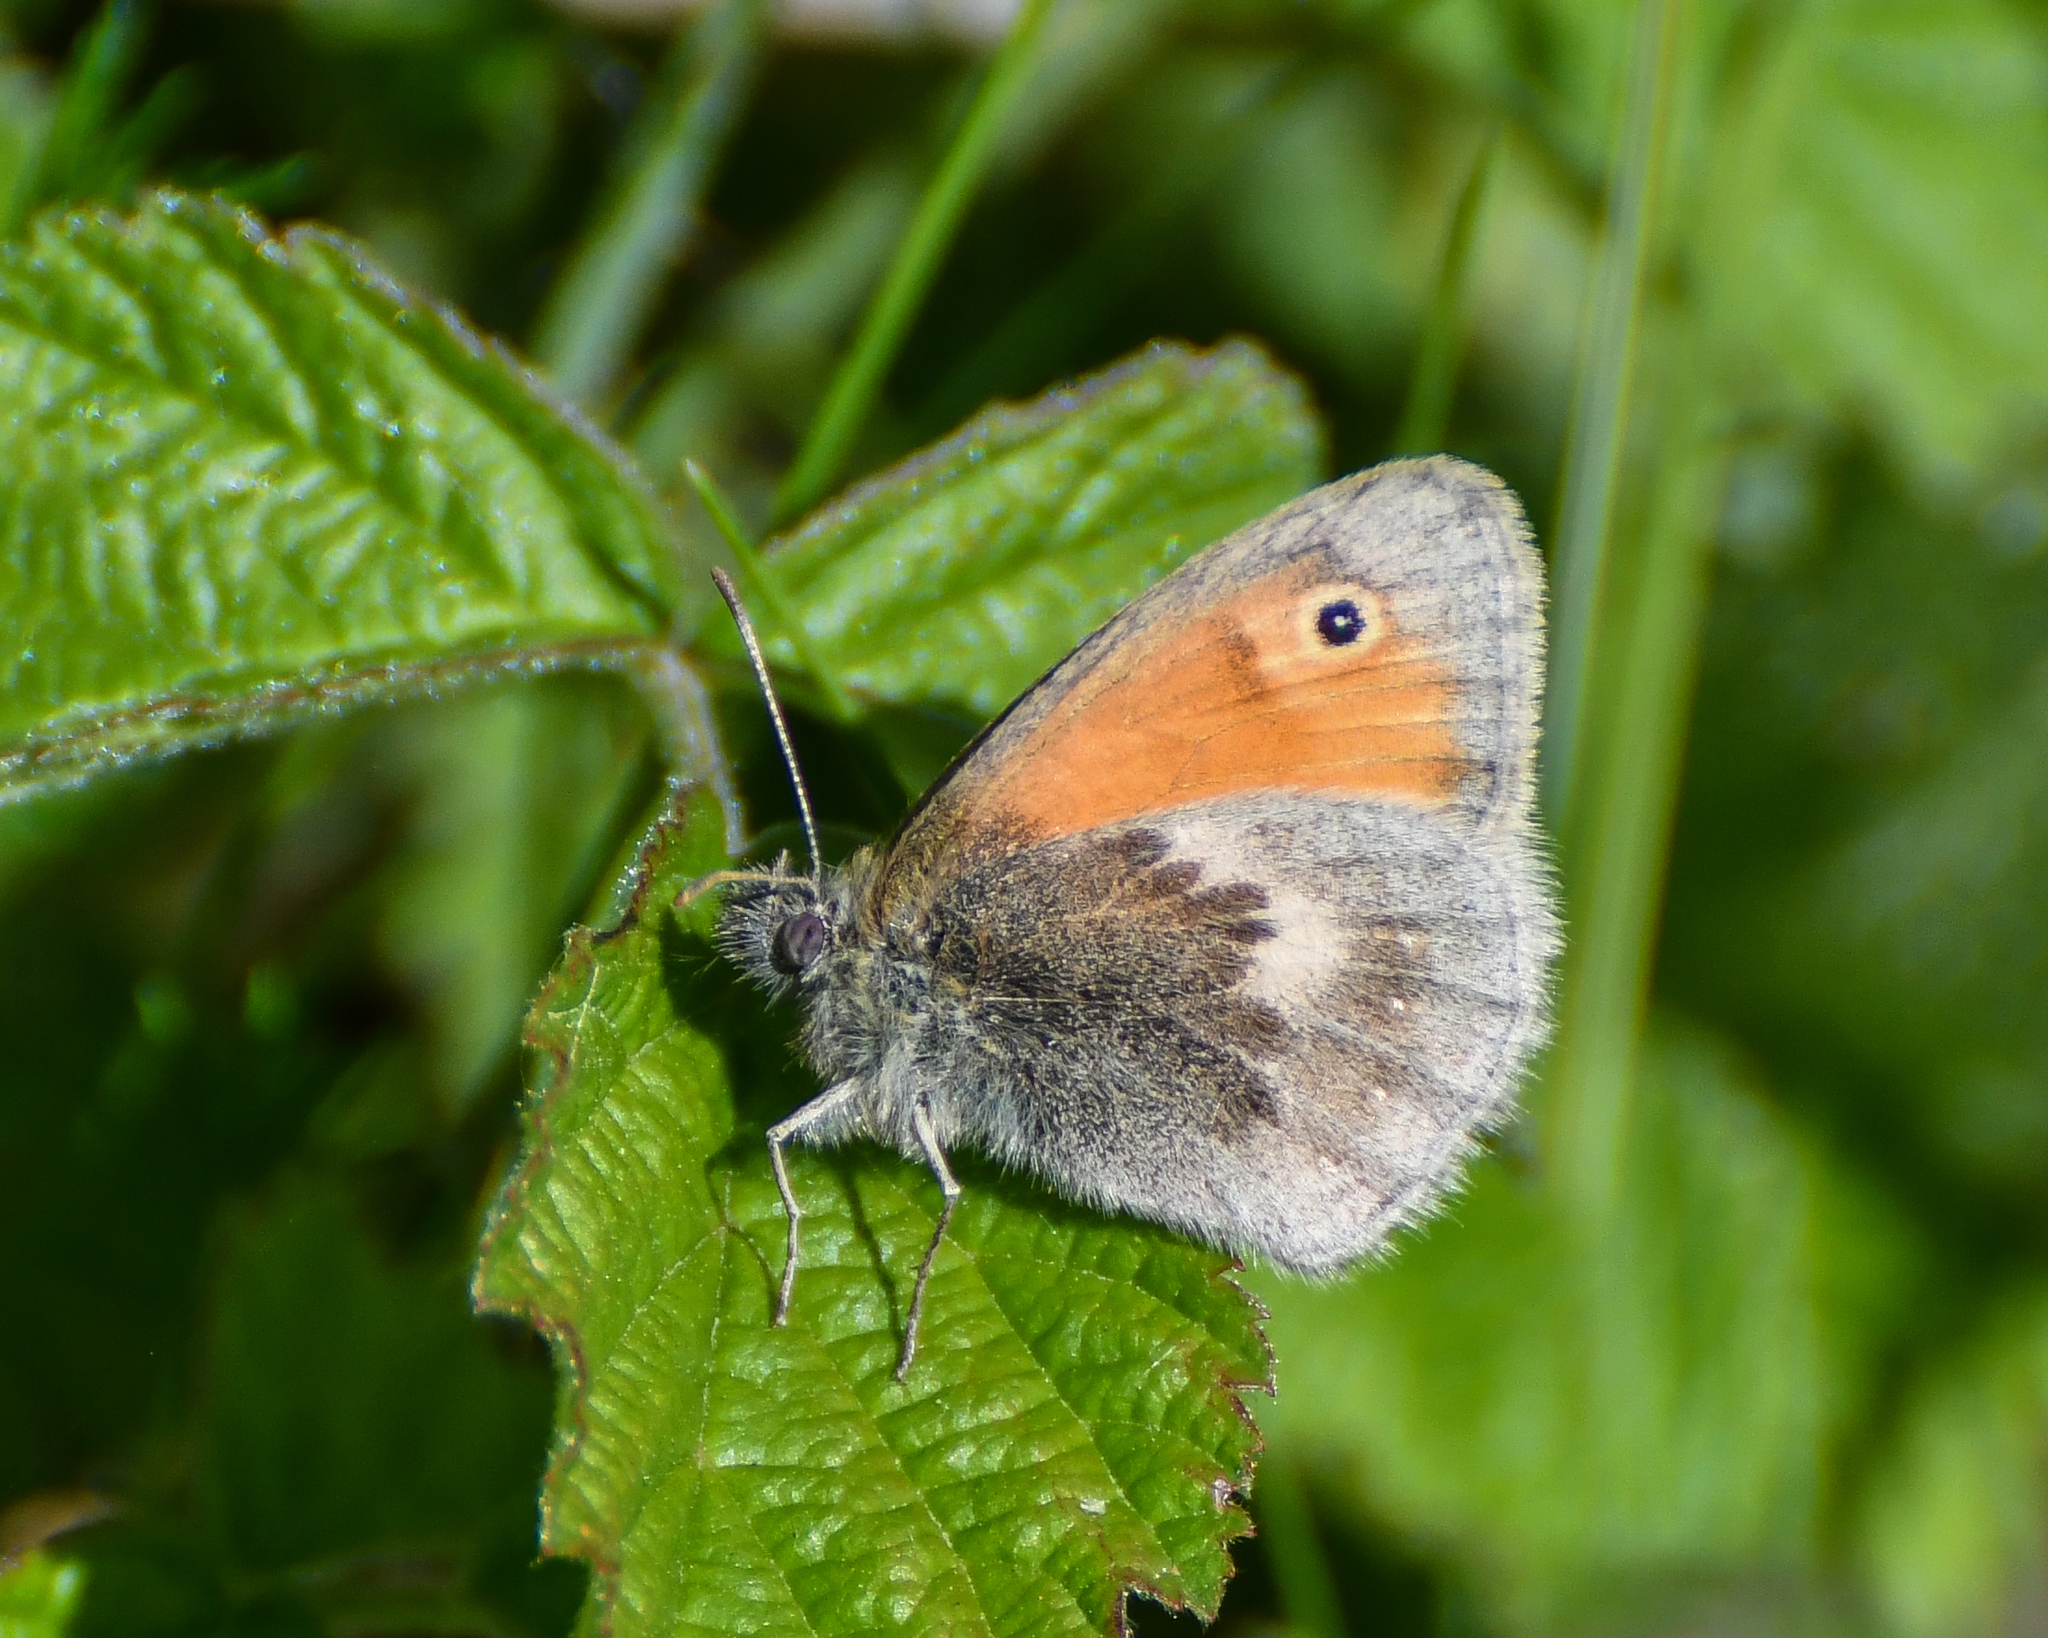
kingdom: Animalia
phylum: Arthropoda
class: Insecta
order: Lepidoptera
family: Nymphalidae
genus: Coenonympha
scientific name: Coenonympha pamphilus
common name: Small heath
